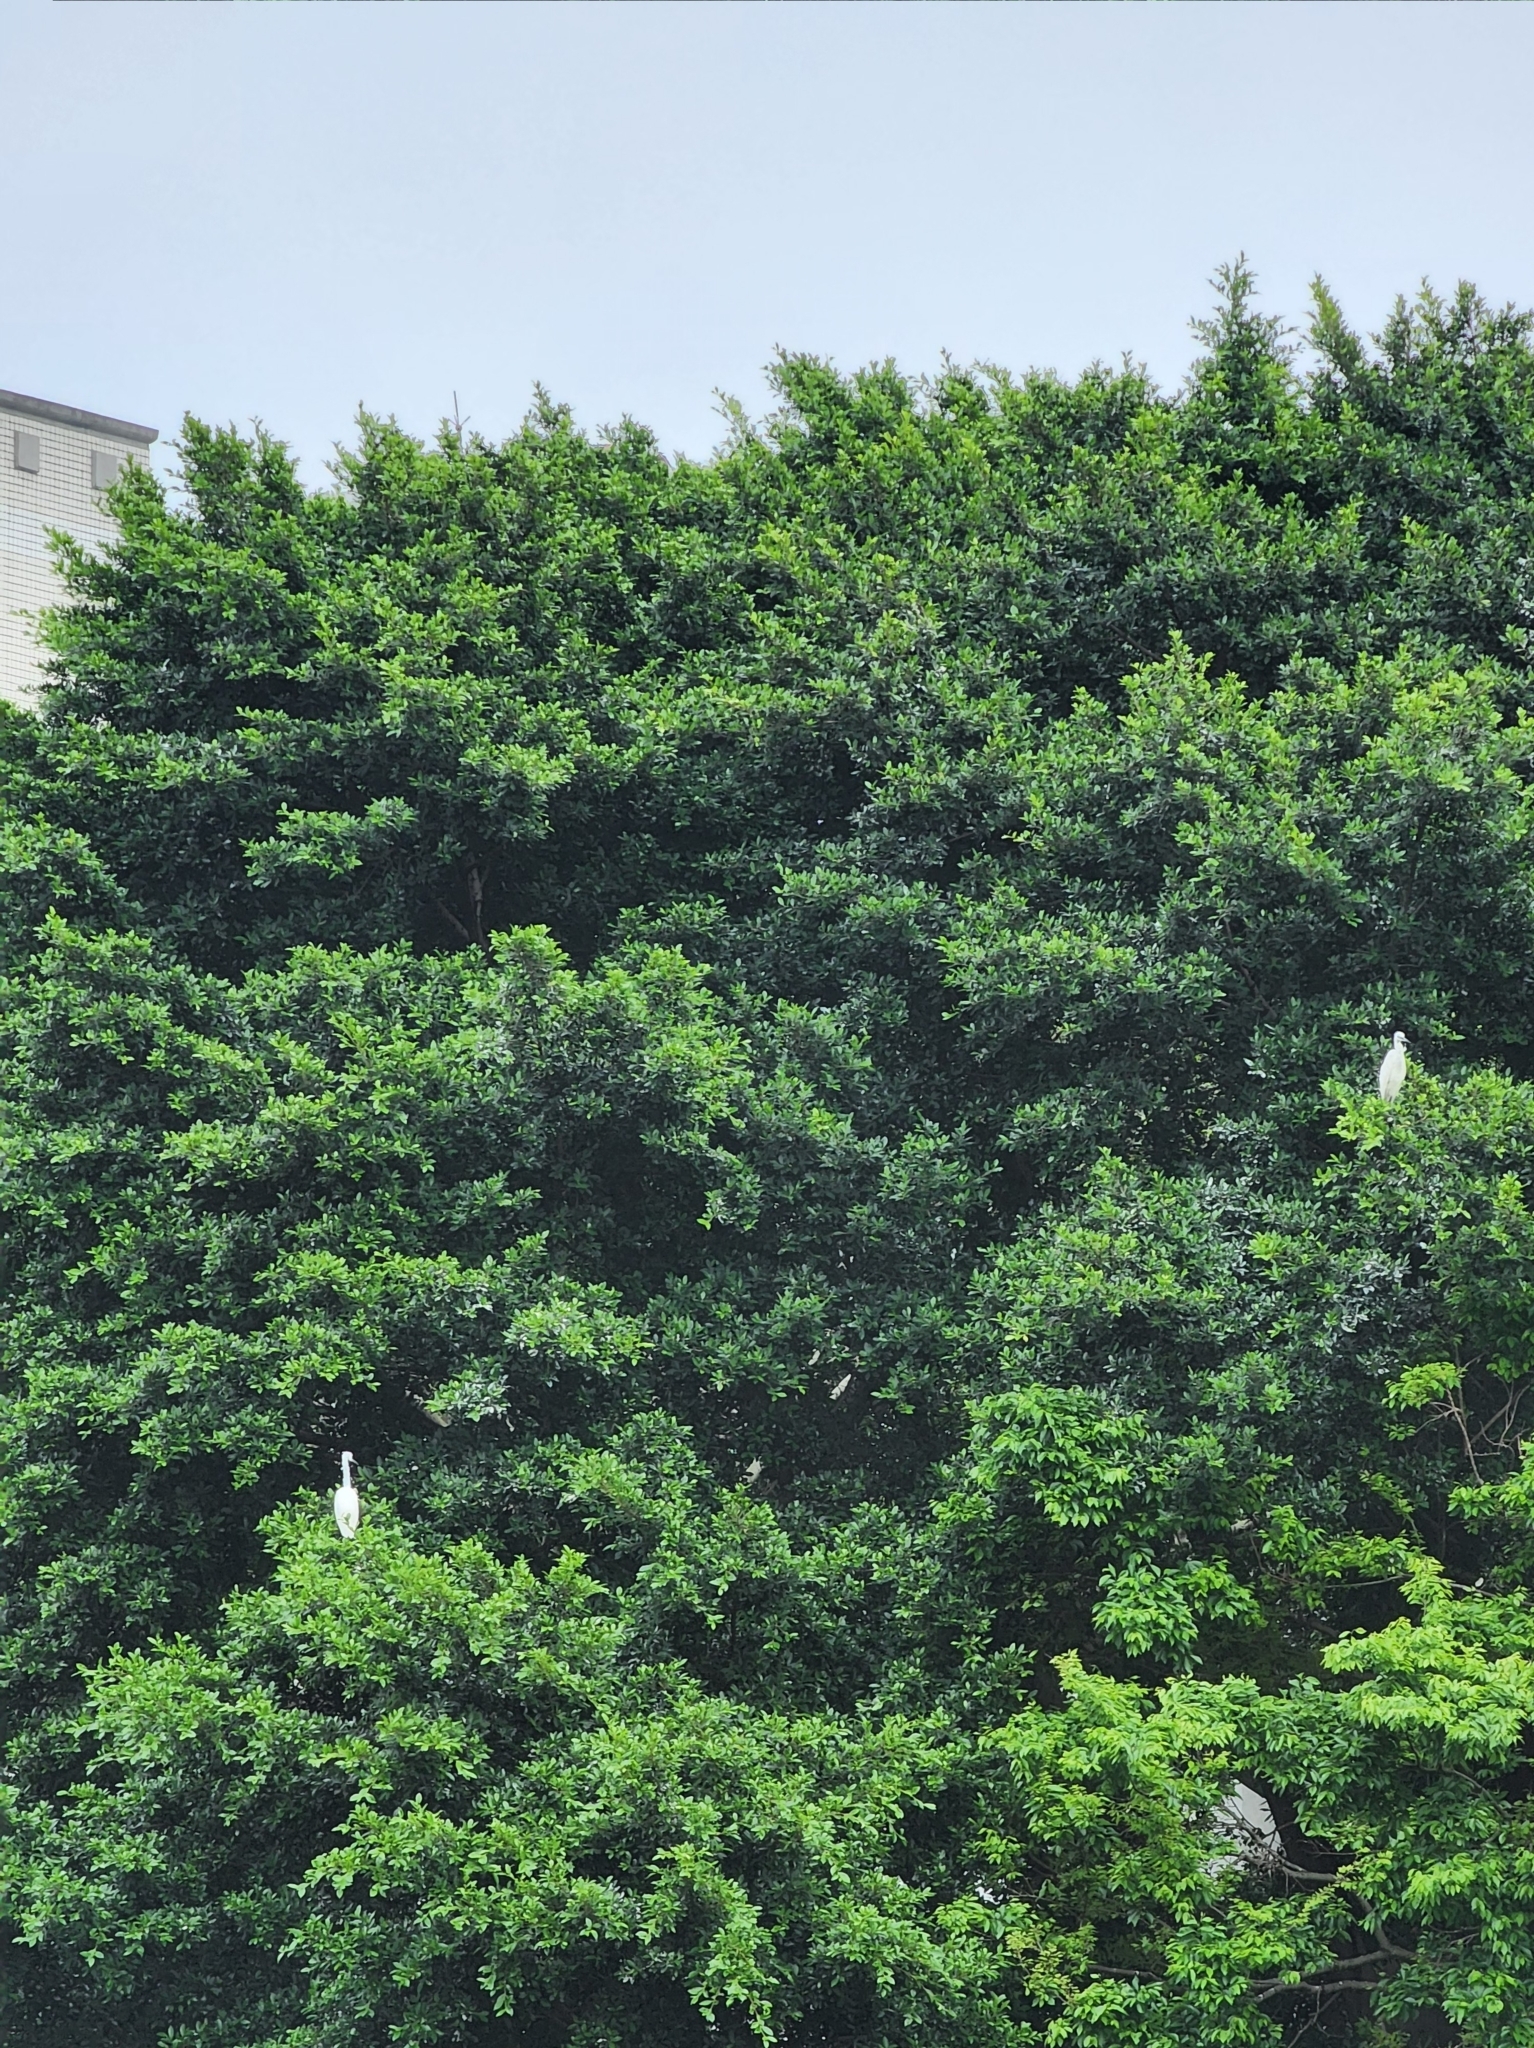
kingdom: Animalia
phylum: Chordata
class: Aves
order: Pelecaniformes
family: Ardeidae
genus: Egretta
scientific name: Egretta garzetta
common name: Little egret
